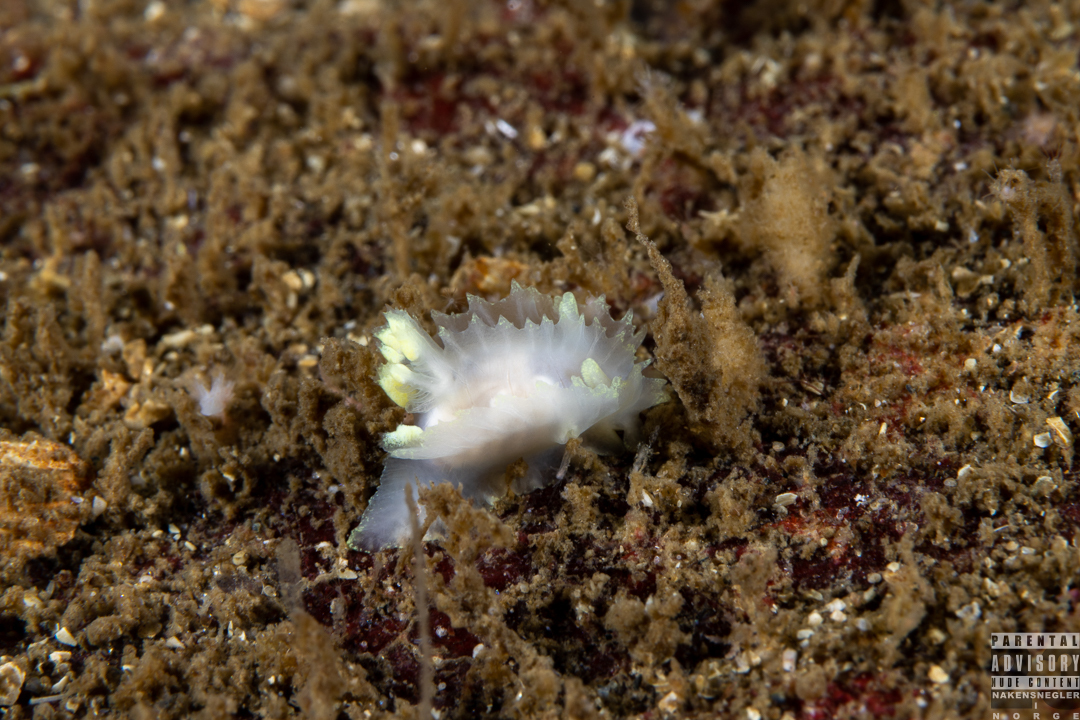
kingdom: Animalia
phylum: Mollusca
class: Gastropoda
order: Nudibranchia
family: Goniodorididae
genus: Lophodoris
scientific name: Lophodoris danielsseni
